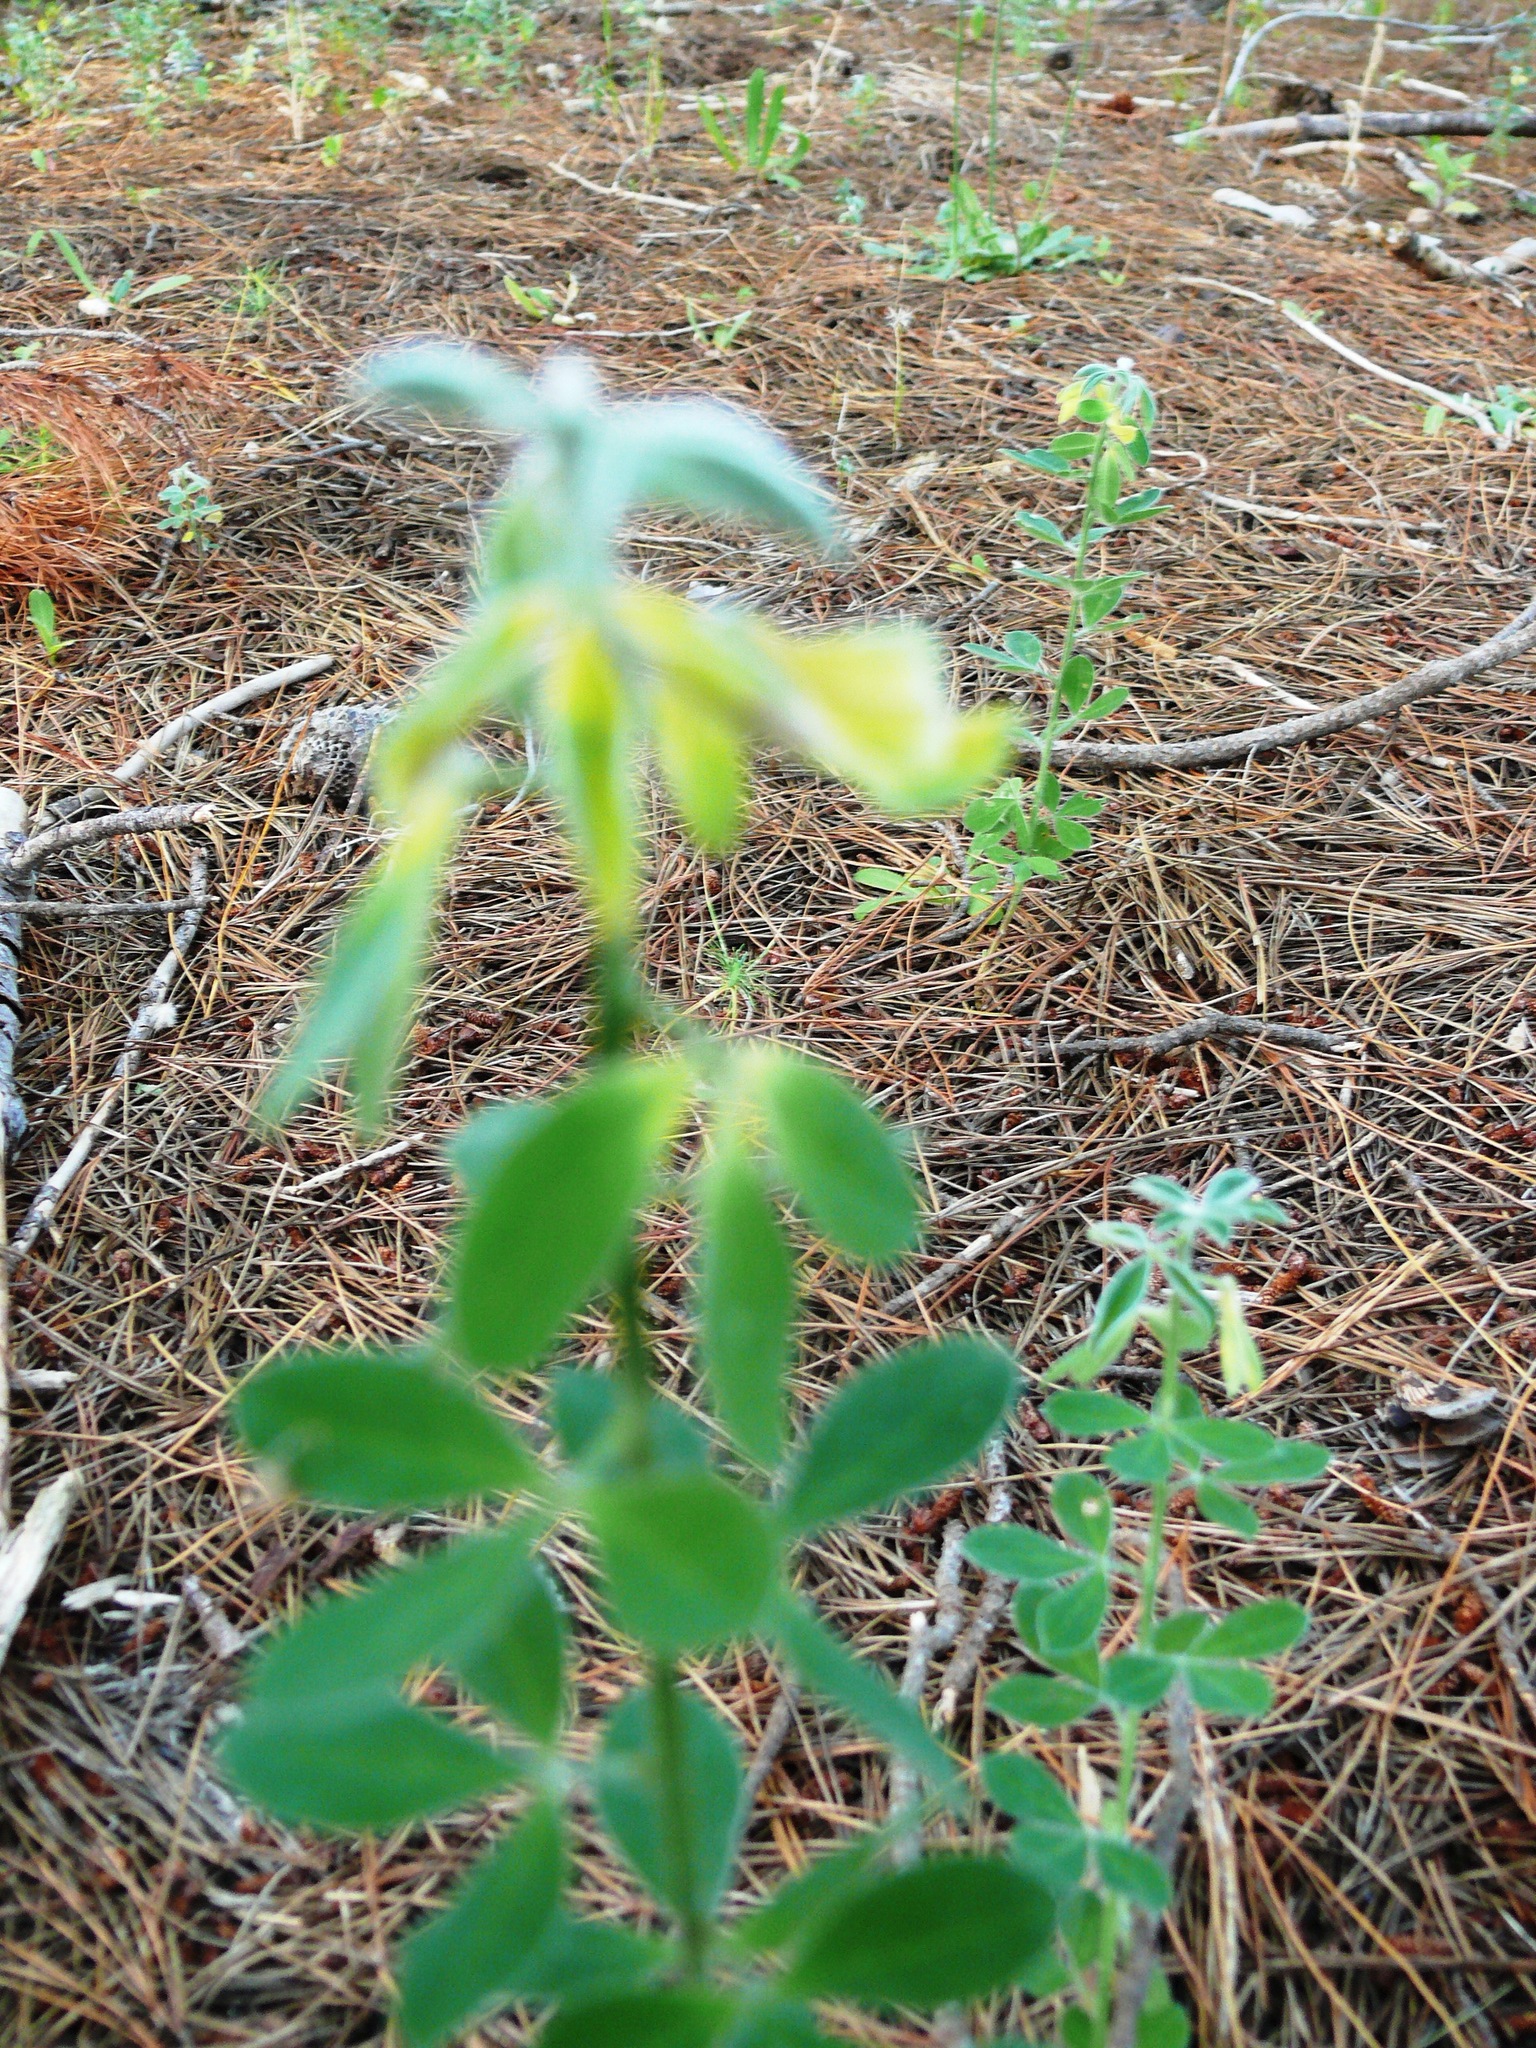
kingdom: Plantae
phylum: Tracheophyta
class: Magnoliopsida
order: Fabales
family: Fabaceae
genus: Genista
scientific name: Genista monspessulana
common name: Montpellier broom
